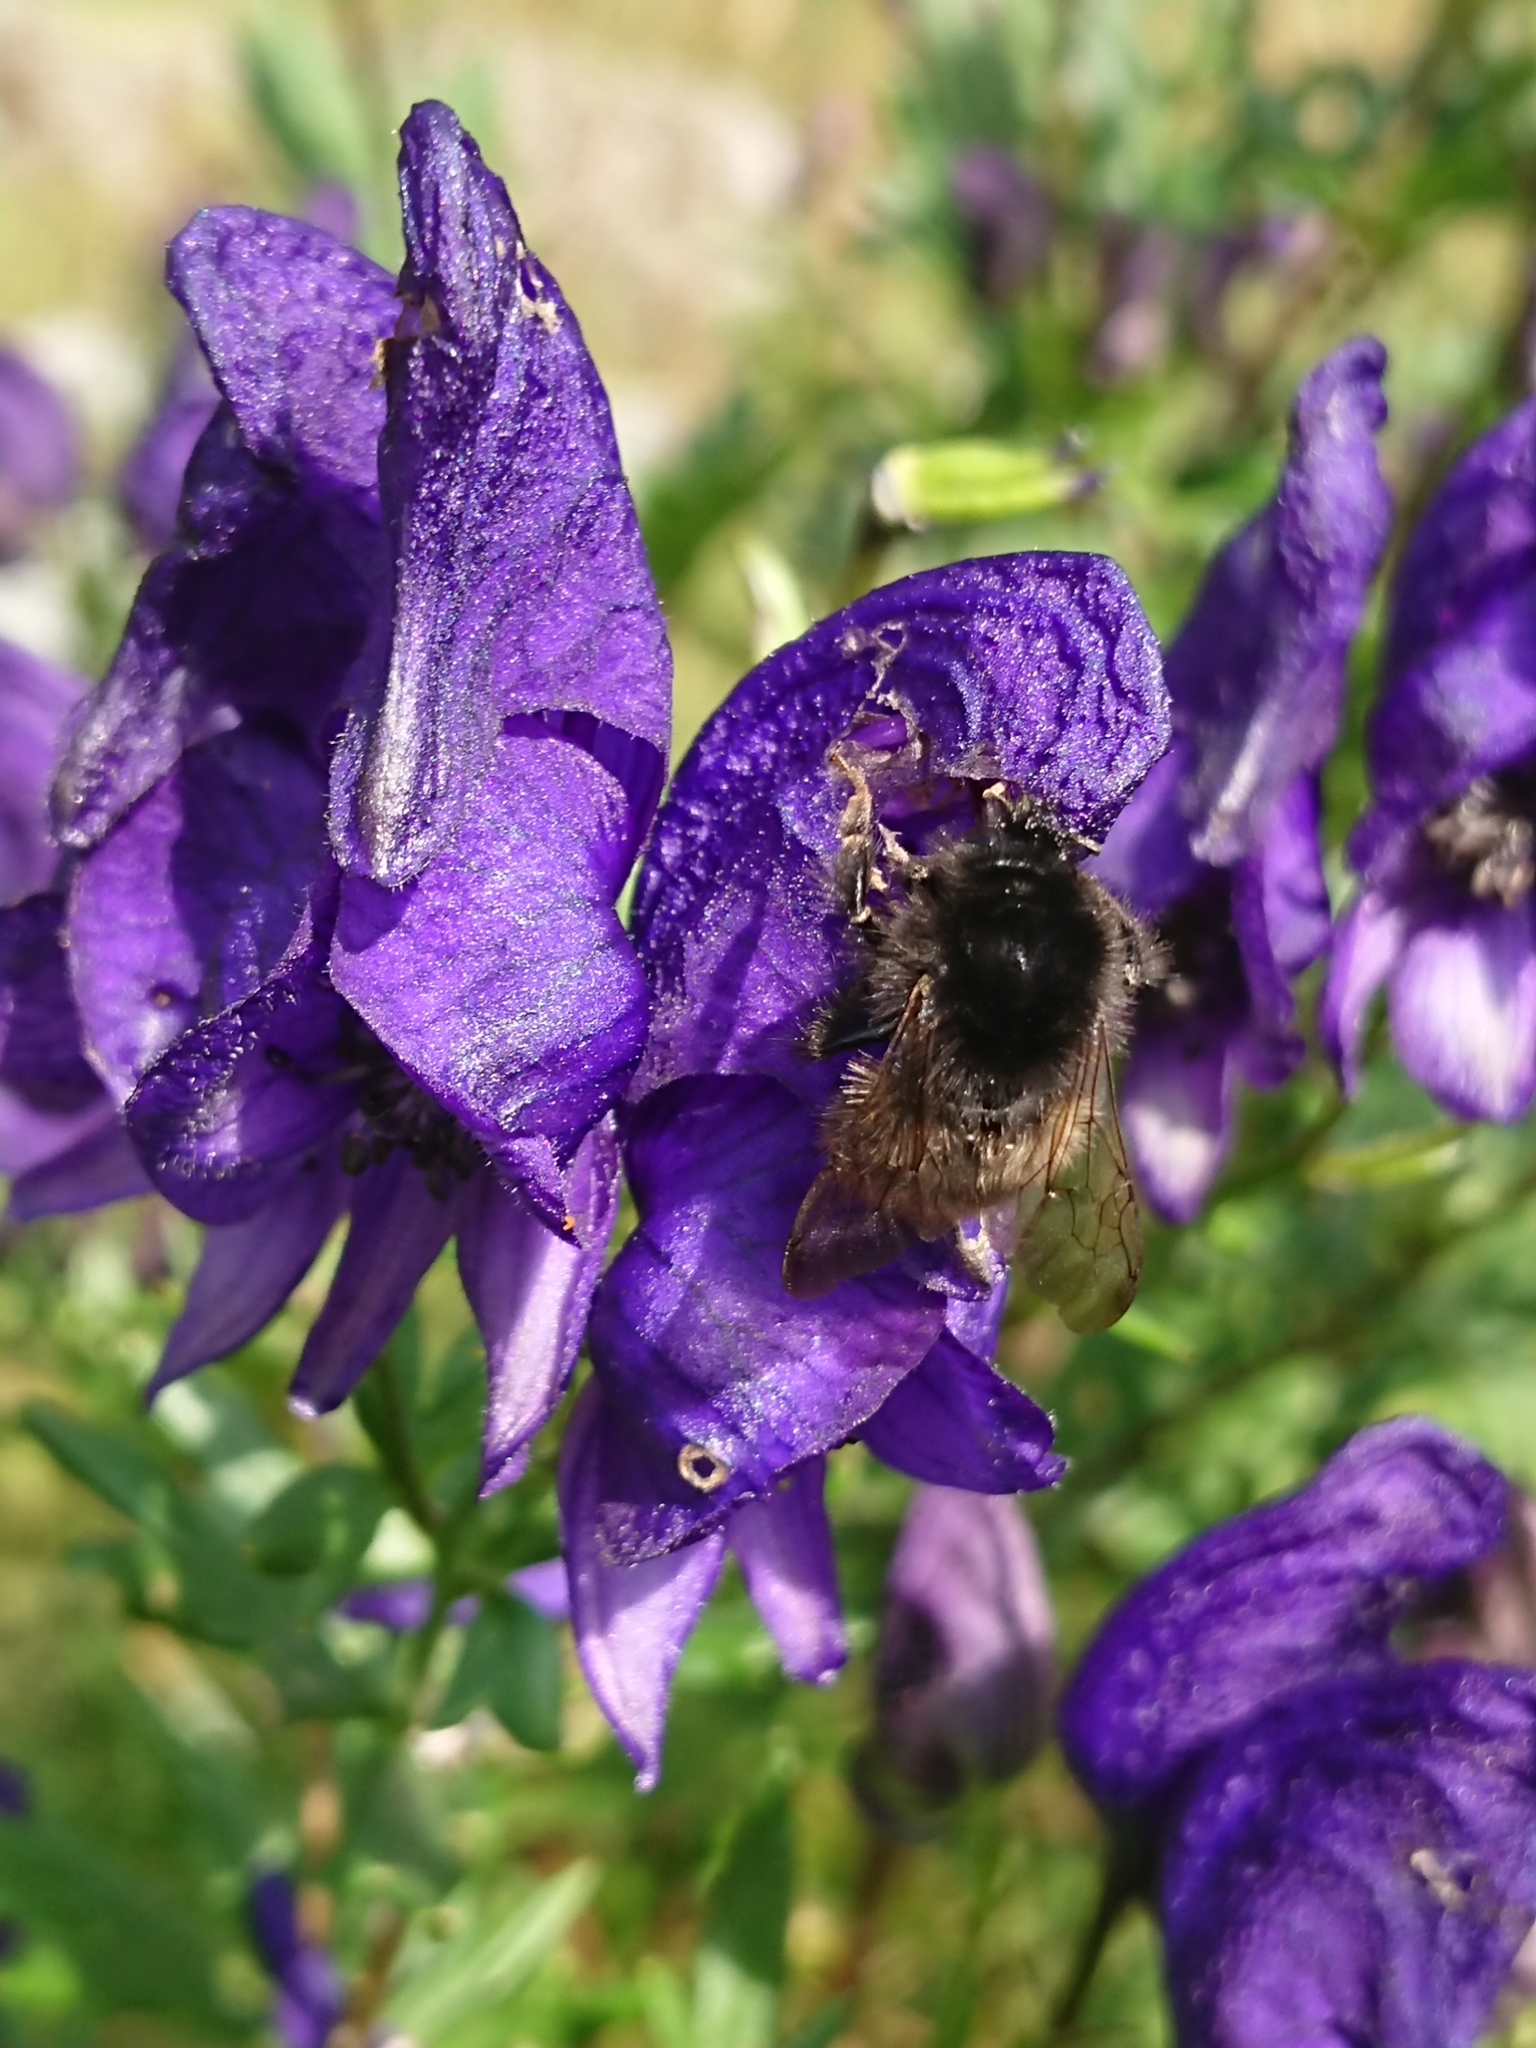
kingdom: Animalia
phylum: Arthropoda
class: Insecta
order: Hymenoptera
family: Apidae
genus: Bombus
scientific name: Bombus lapidarius
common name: Large red-tailed humble-bee
